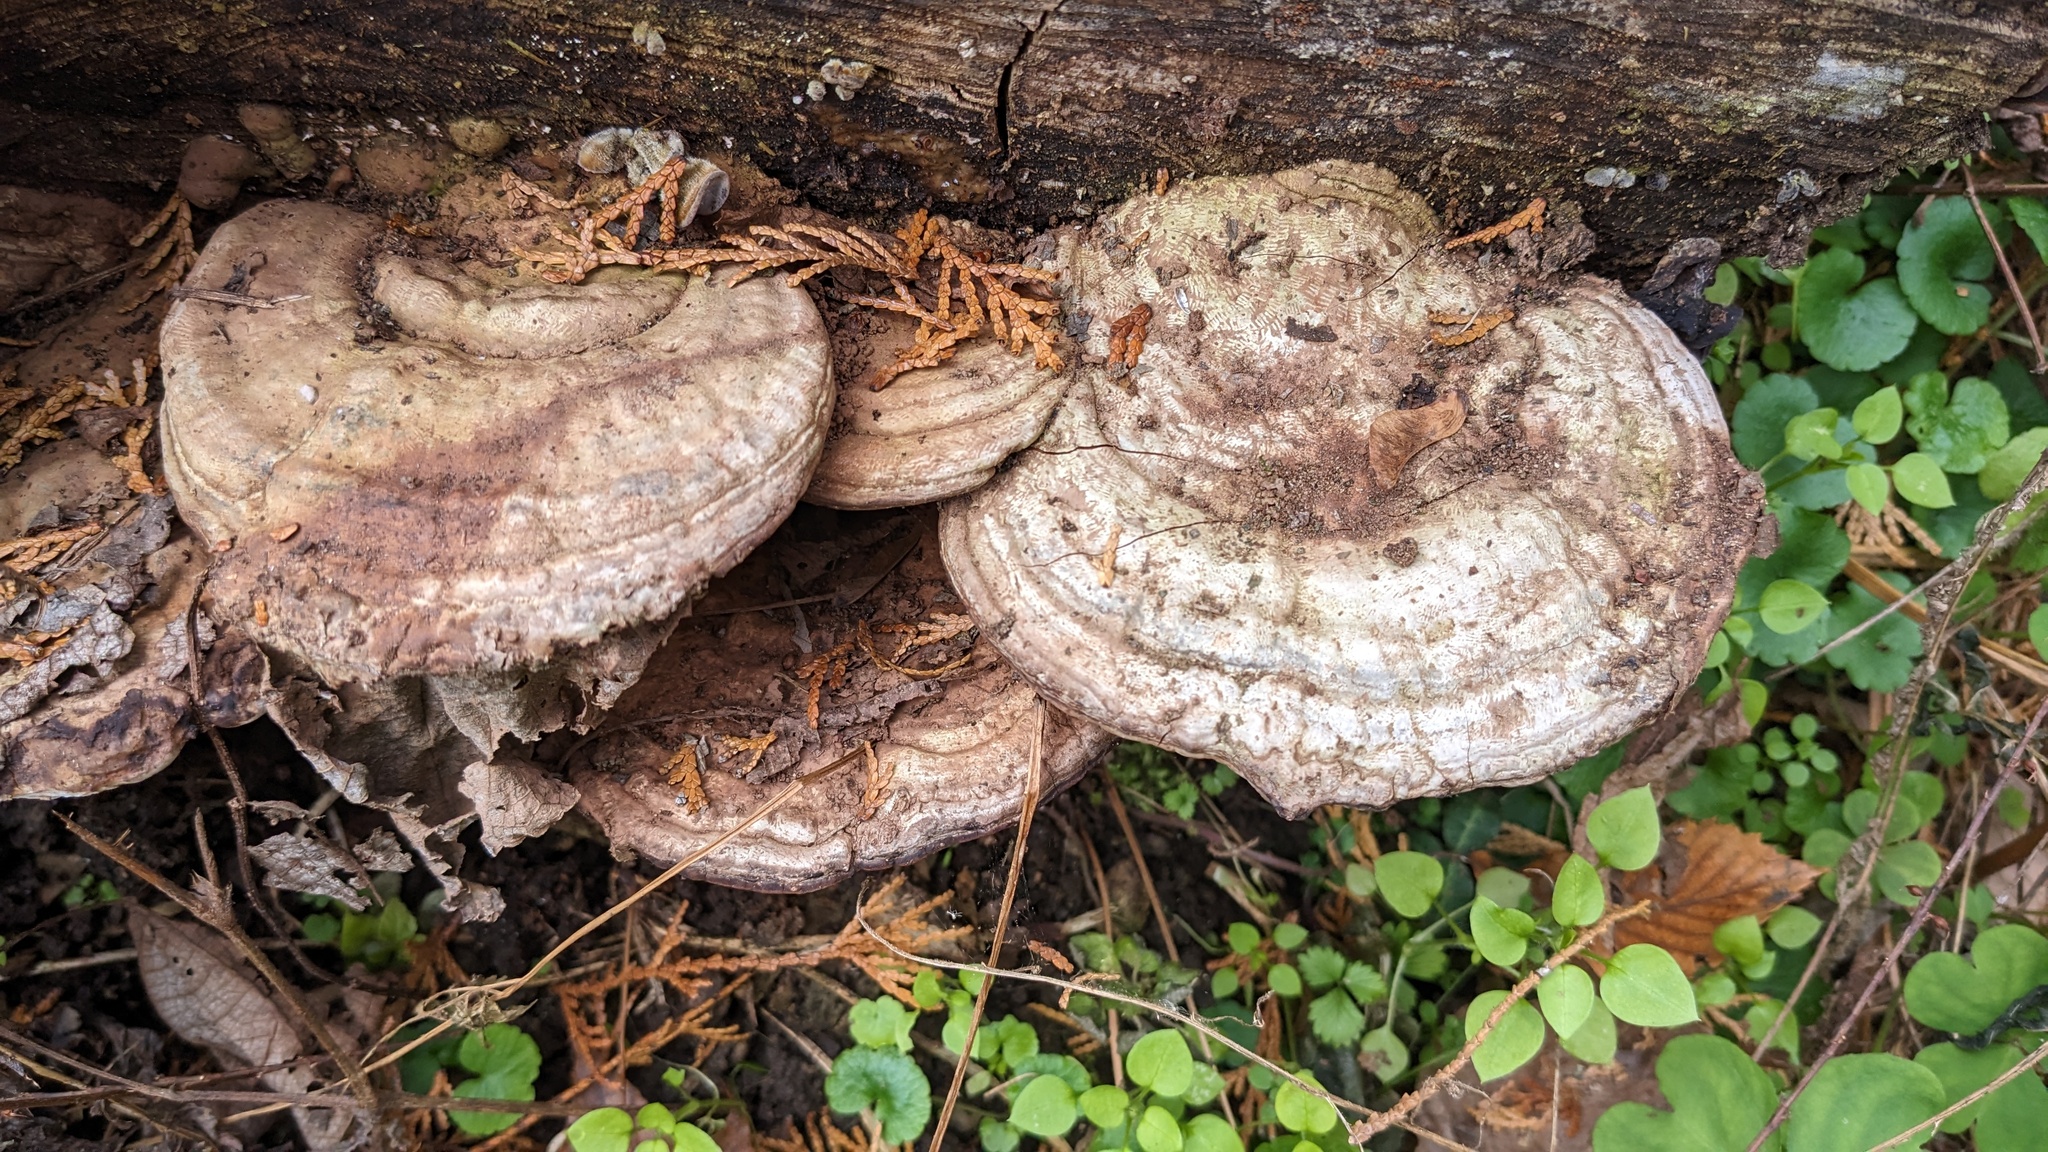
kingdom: Fungi
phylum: Basidiomycota
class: Agaricomycetes
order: Polyporales
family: Polyporaceae
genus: Ganoderma
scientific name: Ganoderma applanatum
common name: Artist's bracket
